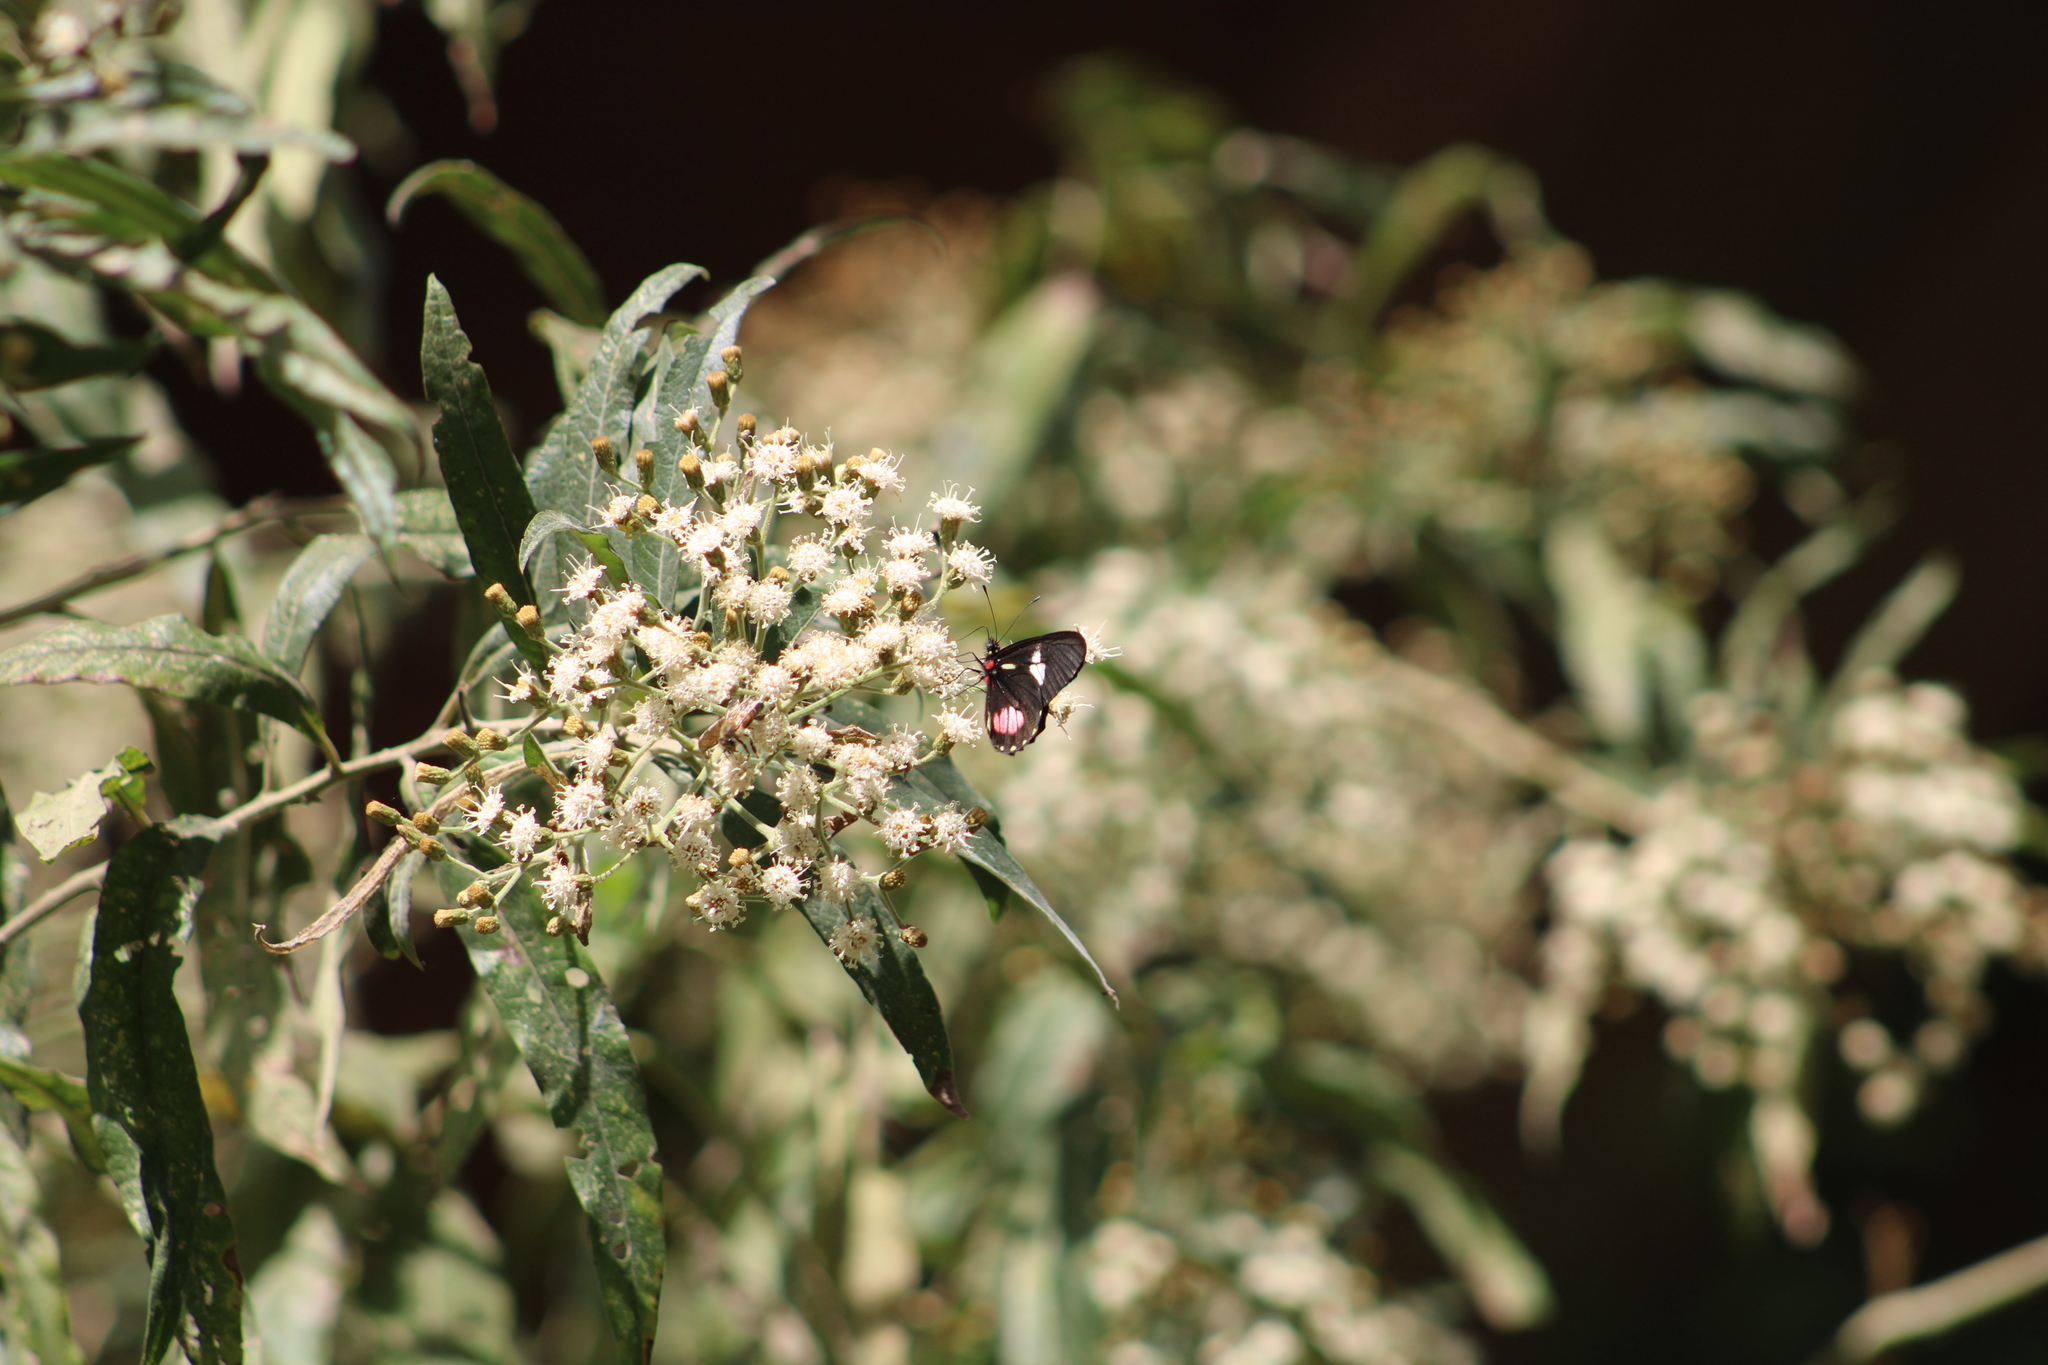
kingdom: Animalia
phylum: Arthropoda
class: Insecta
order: Lepidoptera
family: Pieridae
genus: Archonias
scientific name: Archonias brassolis
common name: Cattleheart white
